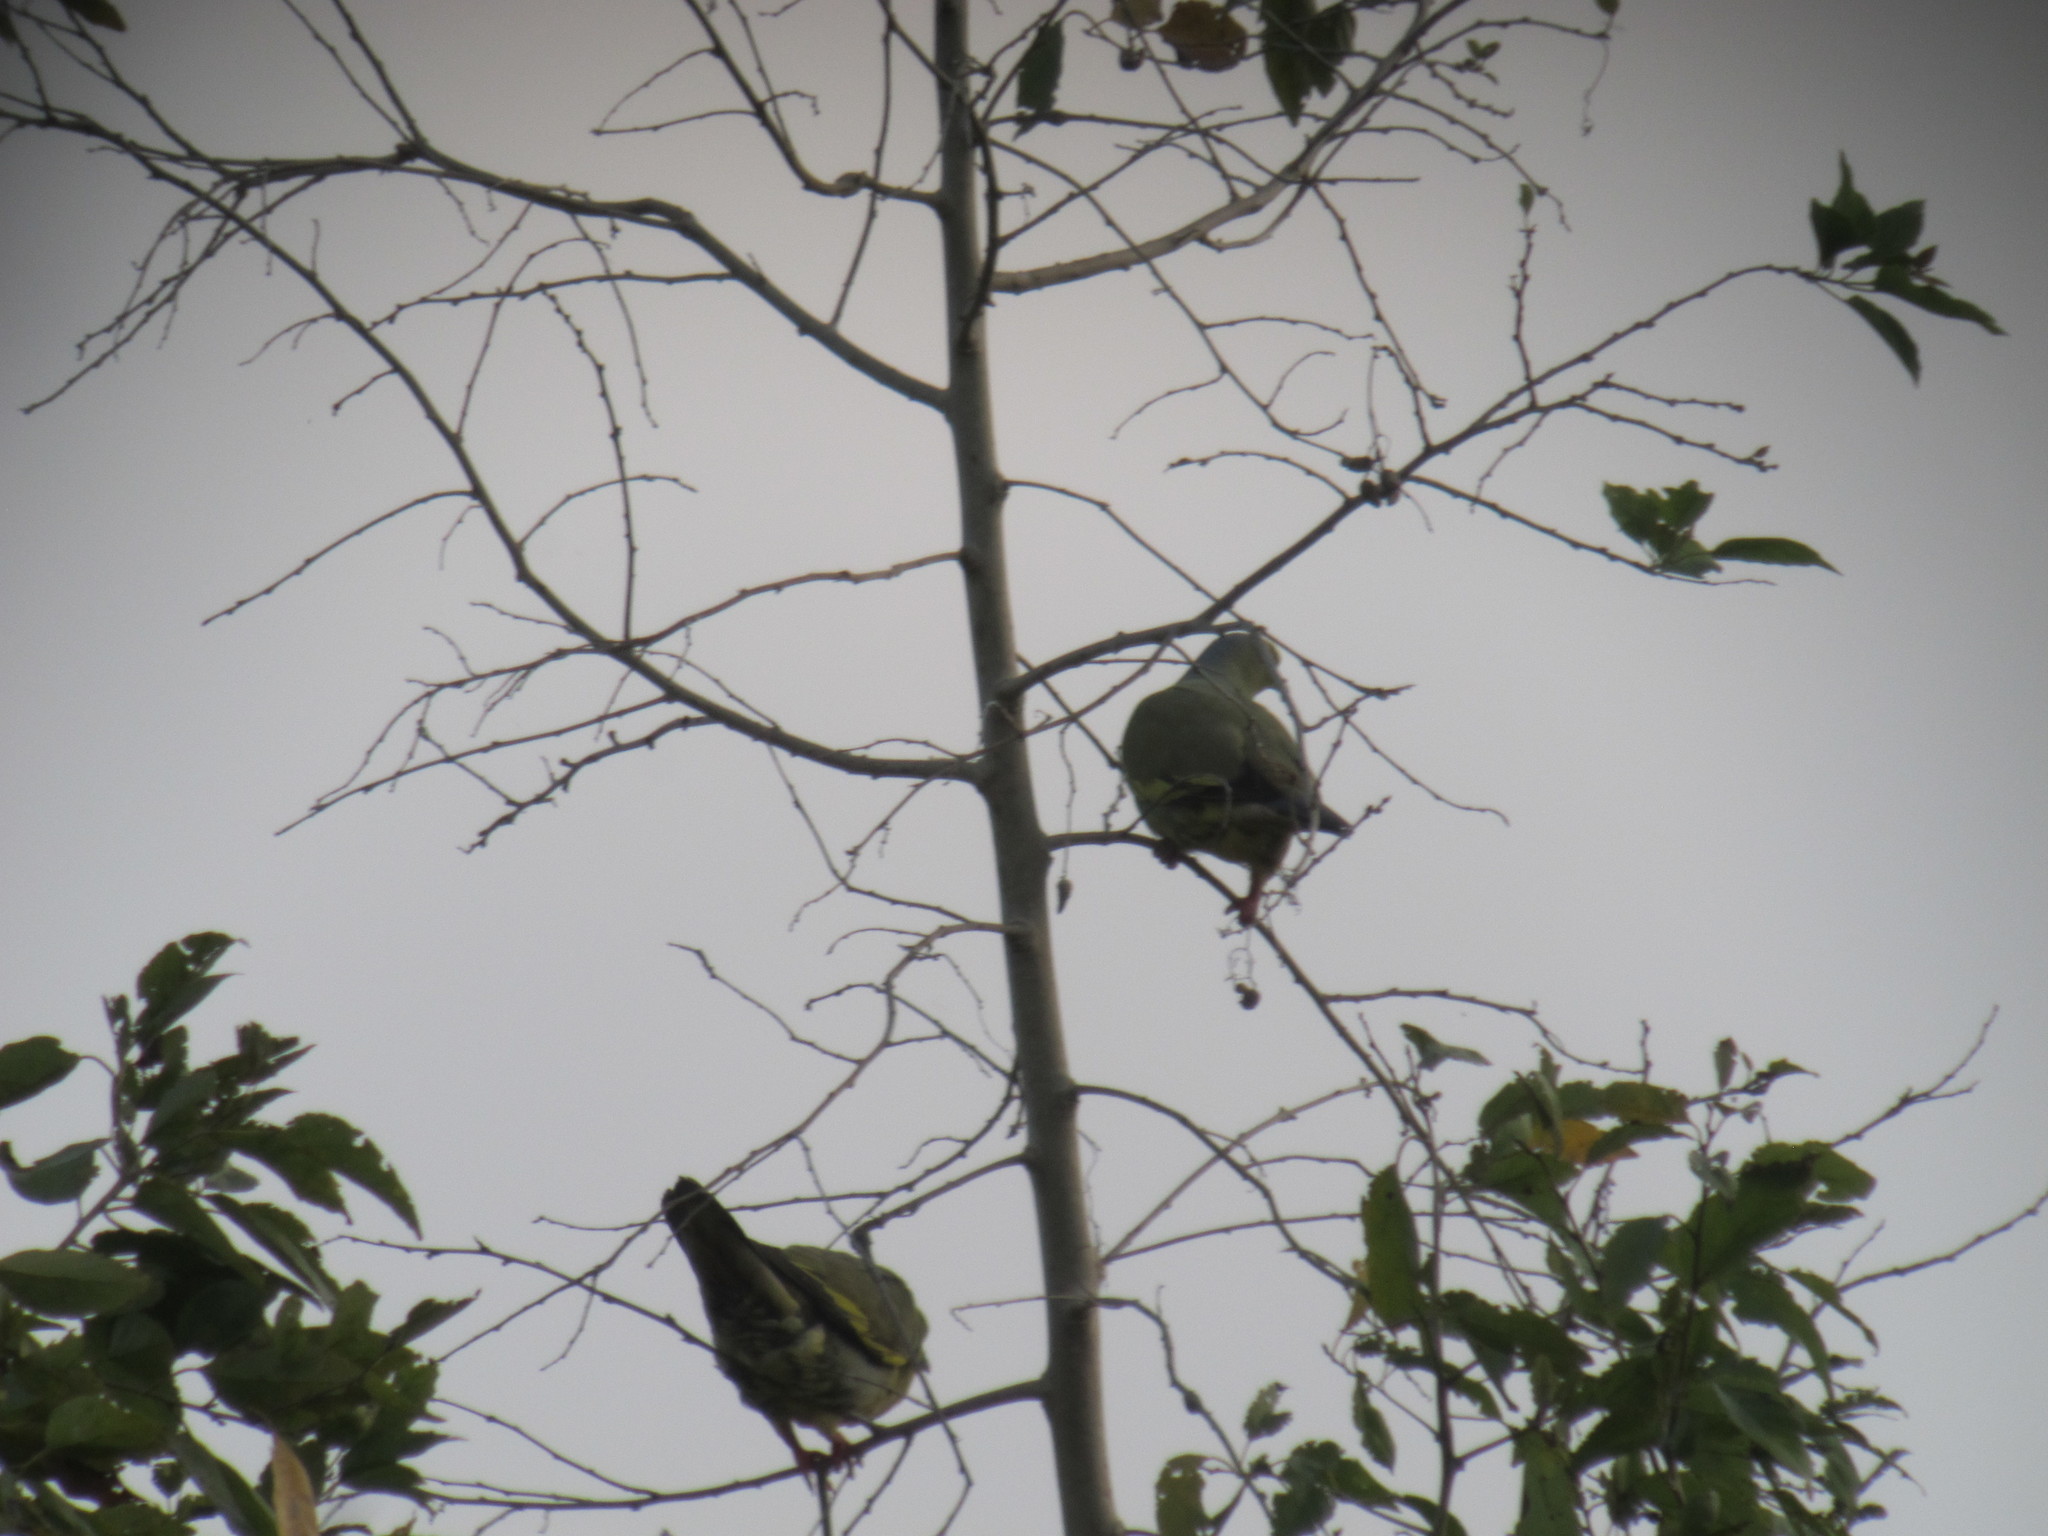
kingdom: Animalia
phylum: Chordata
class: Aves
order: Columbiformes
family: Columbidae
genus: Treron
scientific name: Treron griseicauda
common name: Grey-cheeked green pigeon
